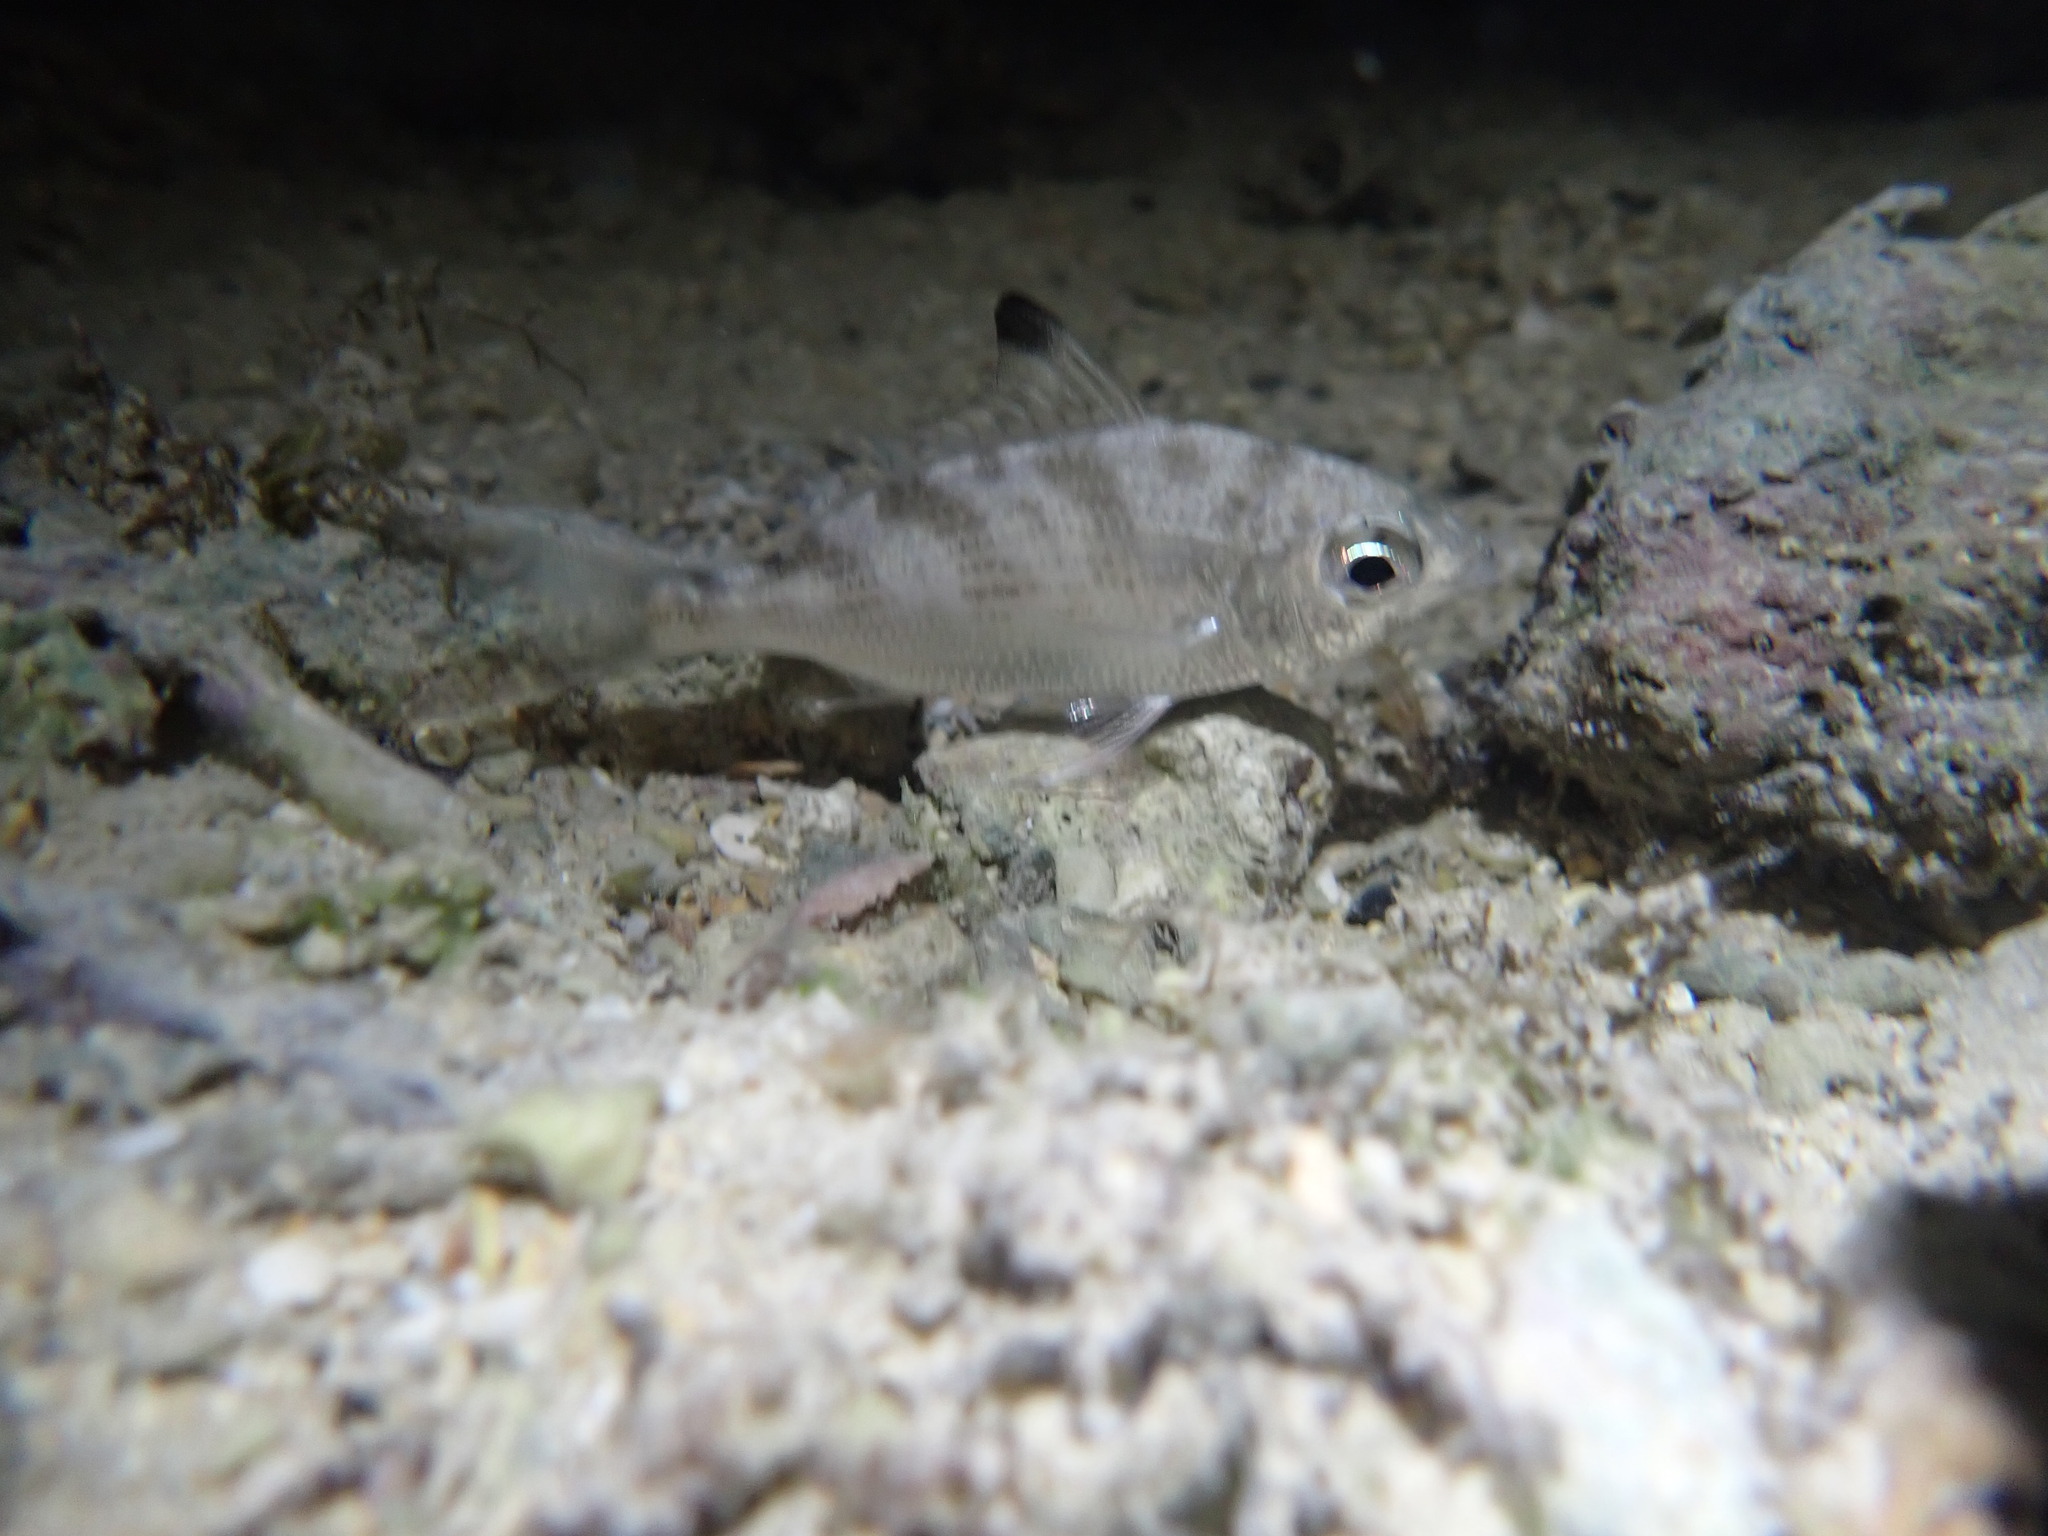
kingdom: Animalia
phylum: Chordata
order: Perciformes
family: Gerreidae
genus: Gerres
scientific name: Gerres oyena
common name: Common silver-biddy
